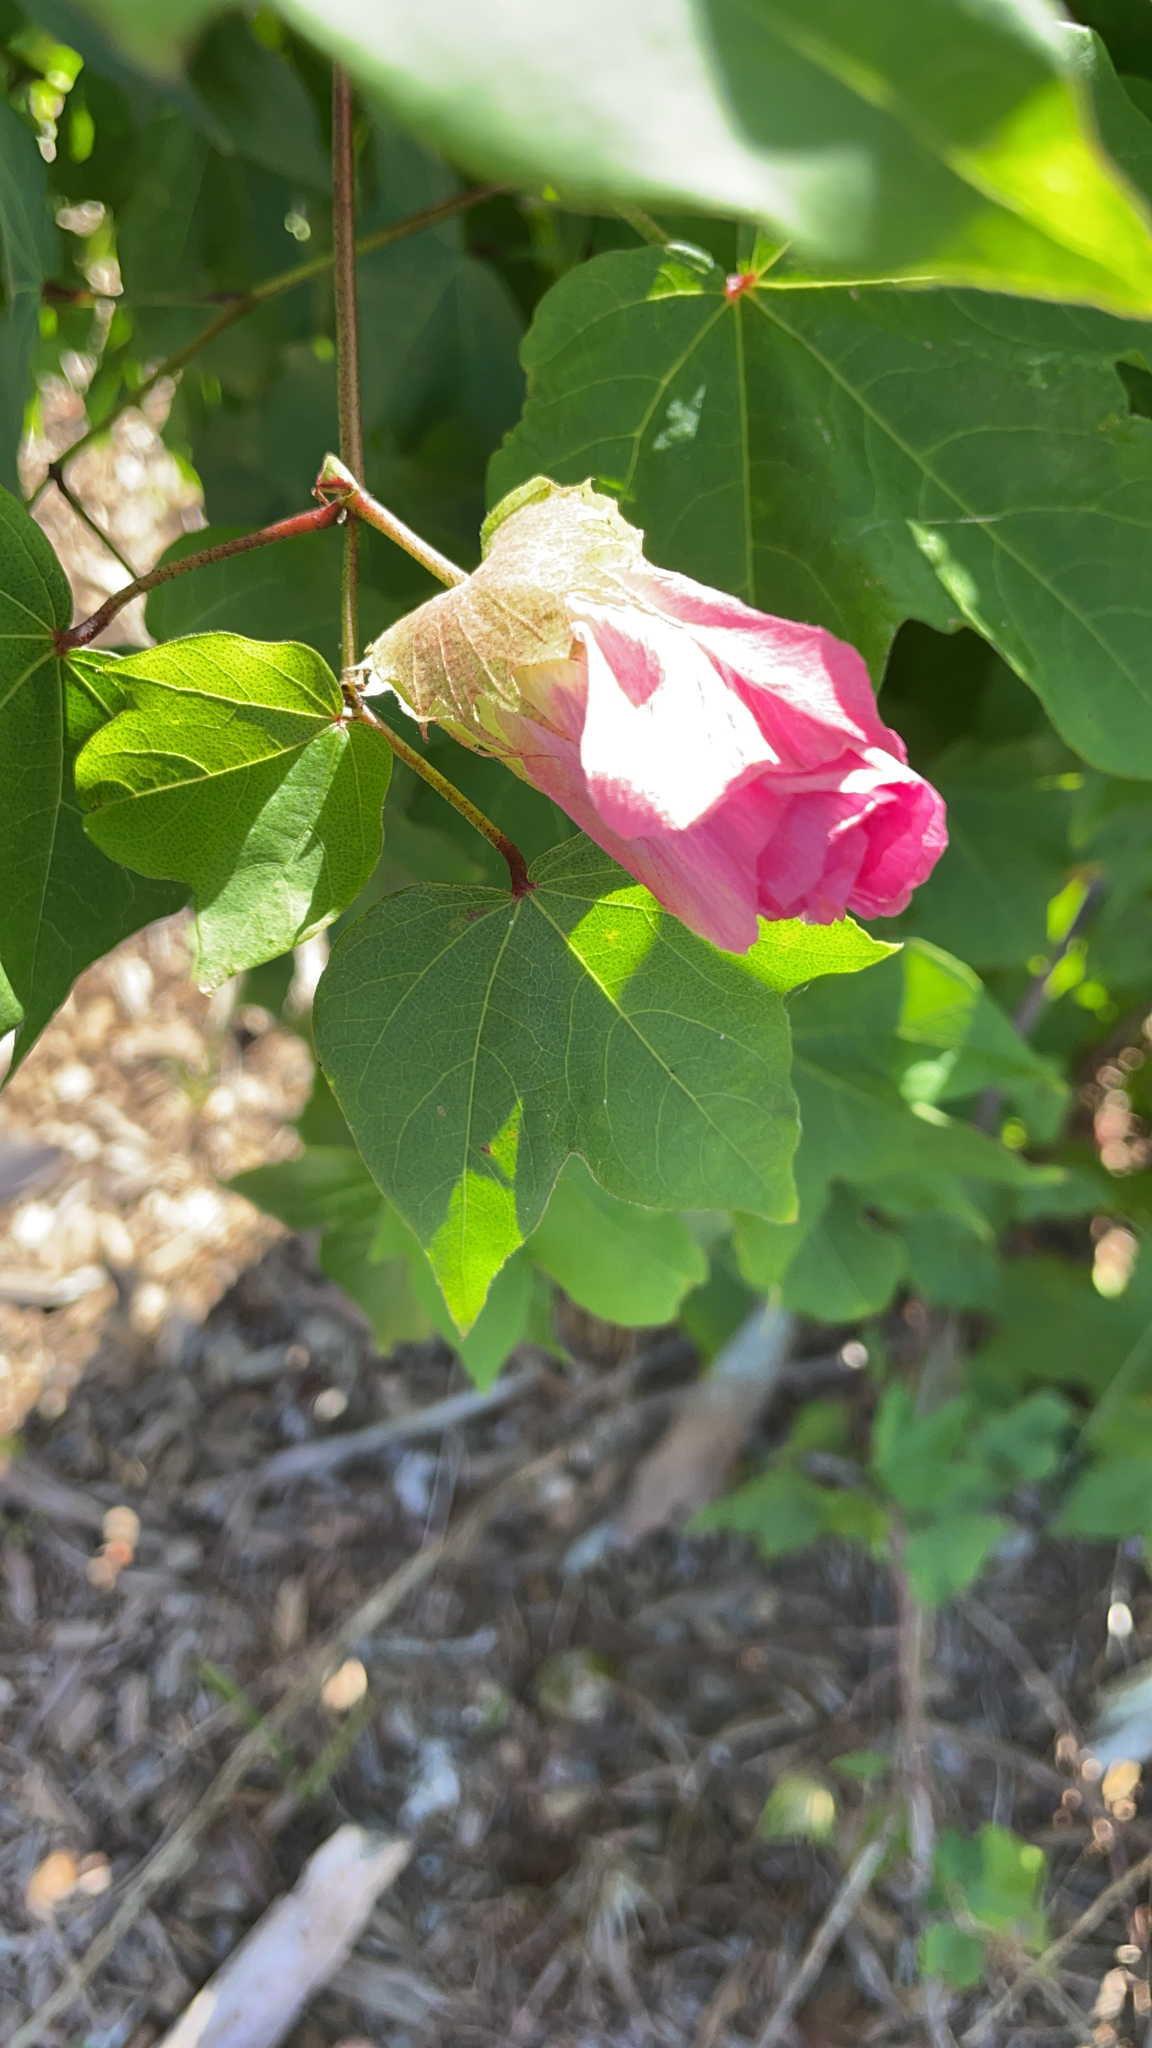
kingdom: Plantae
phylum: Tracheophyta
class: Magnoliopsida
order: Malvales
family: Malvaceae
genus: Gossypium
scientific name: Gossypium hirsutum
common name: Cotton
